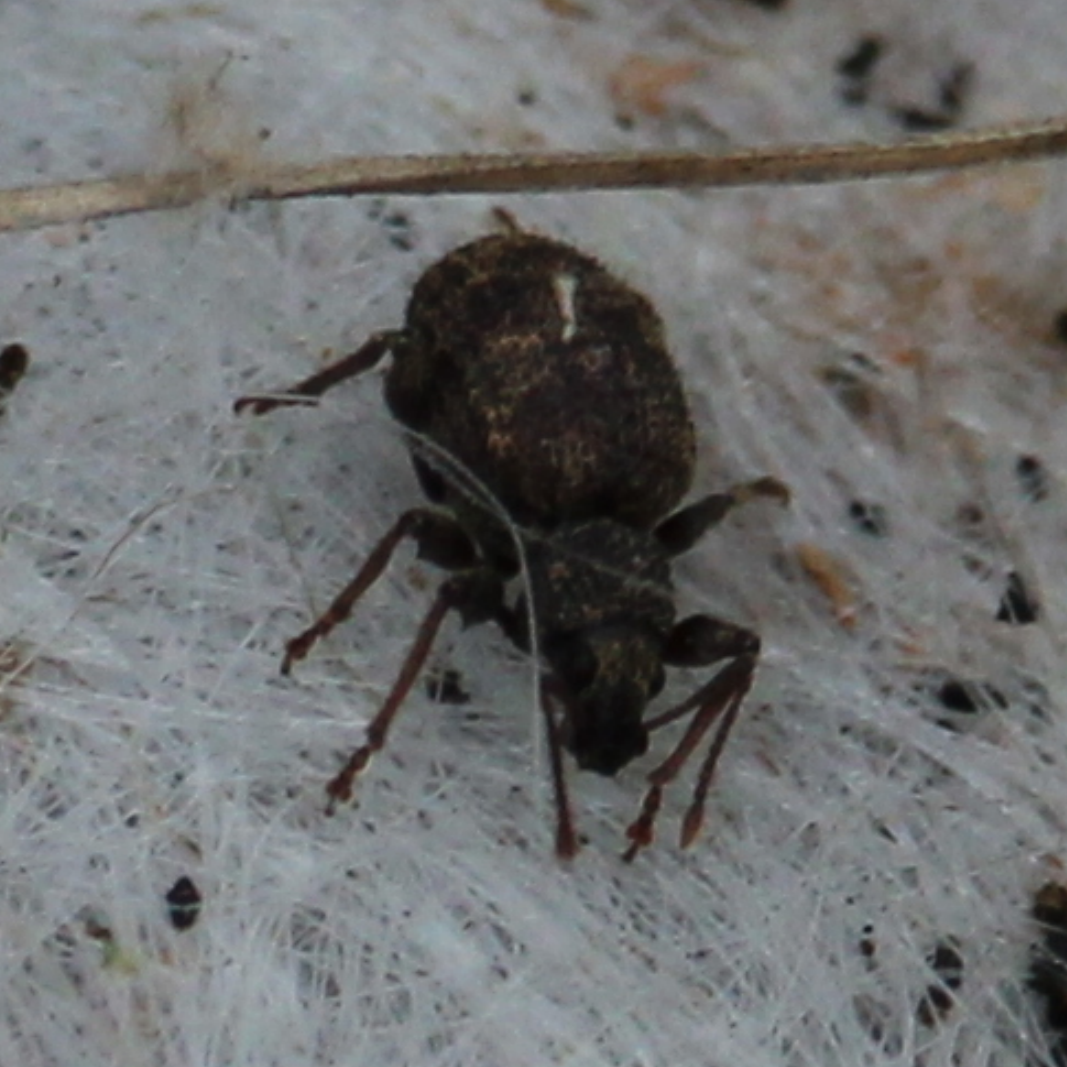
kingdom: Animalia
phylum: Arthropoda
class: Insecta
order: Coleoptera
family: Curculionidae
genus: Otiorhynchus
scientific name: Otiorhynchus crataegi
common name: Privet weevil
